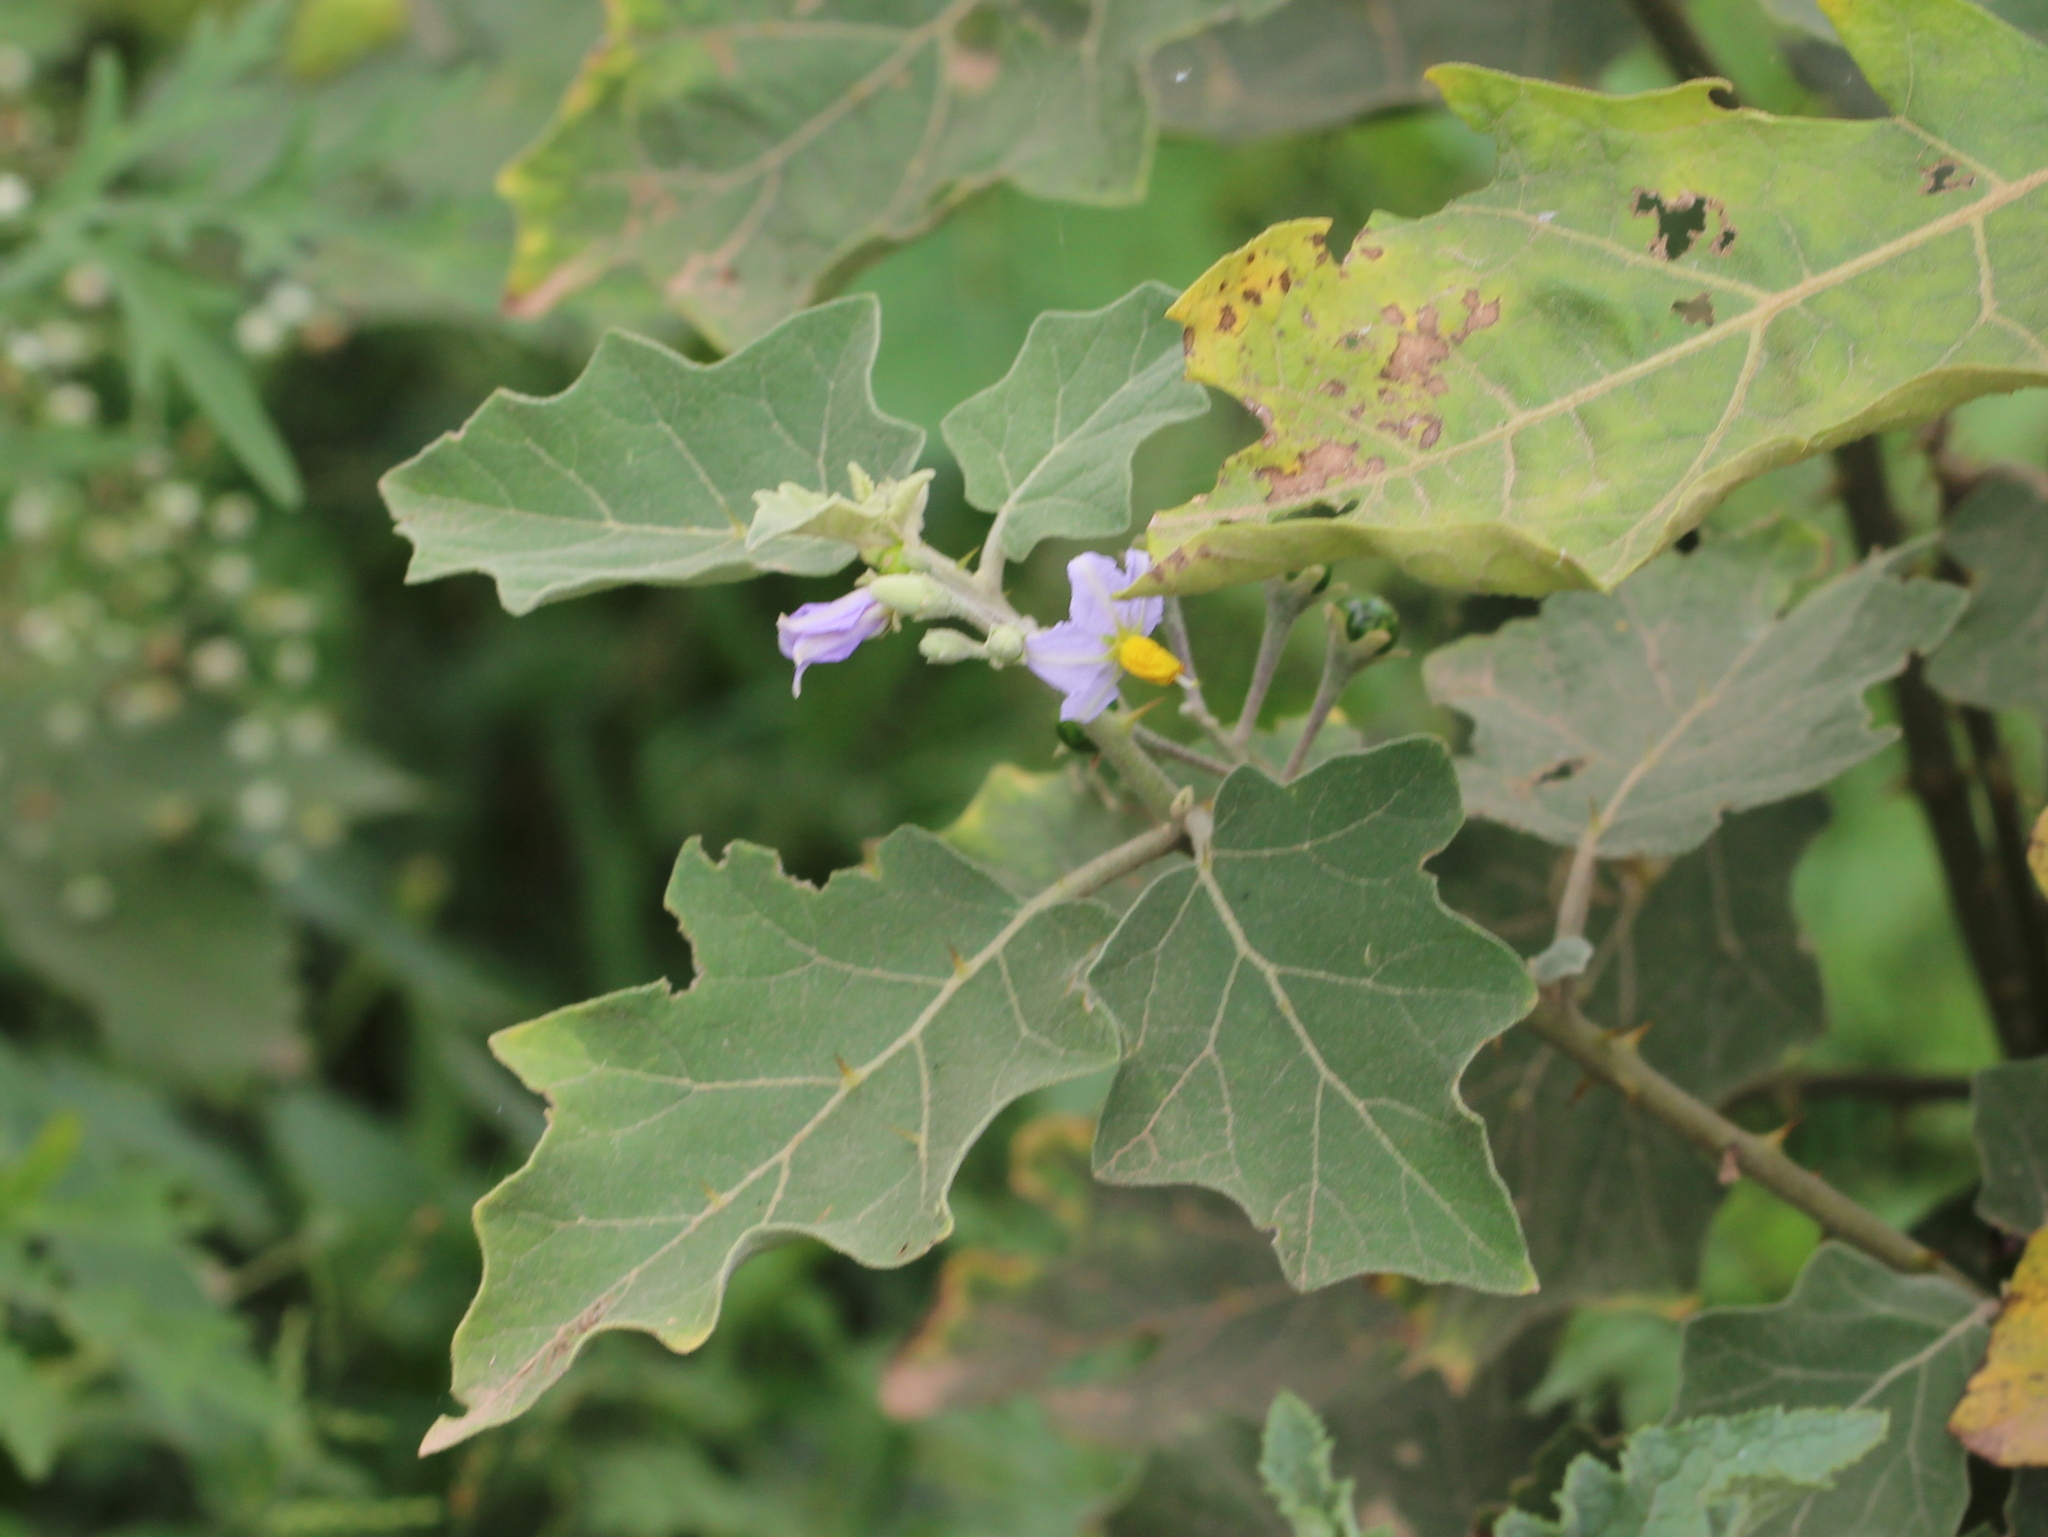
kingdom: Plantae
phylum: Tracheophyta
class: Magnoliopsida
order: Solanales
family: Solanaceae
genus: Solanum
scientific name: Solanum violaceum
